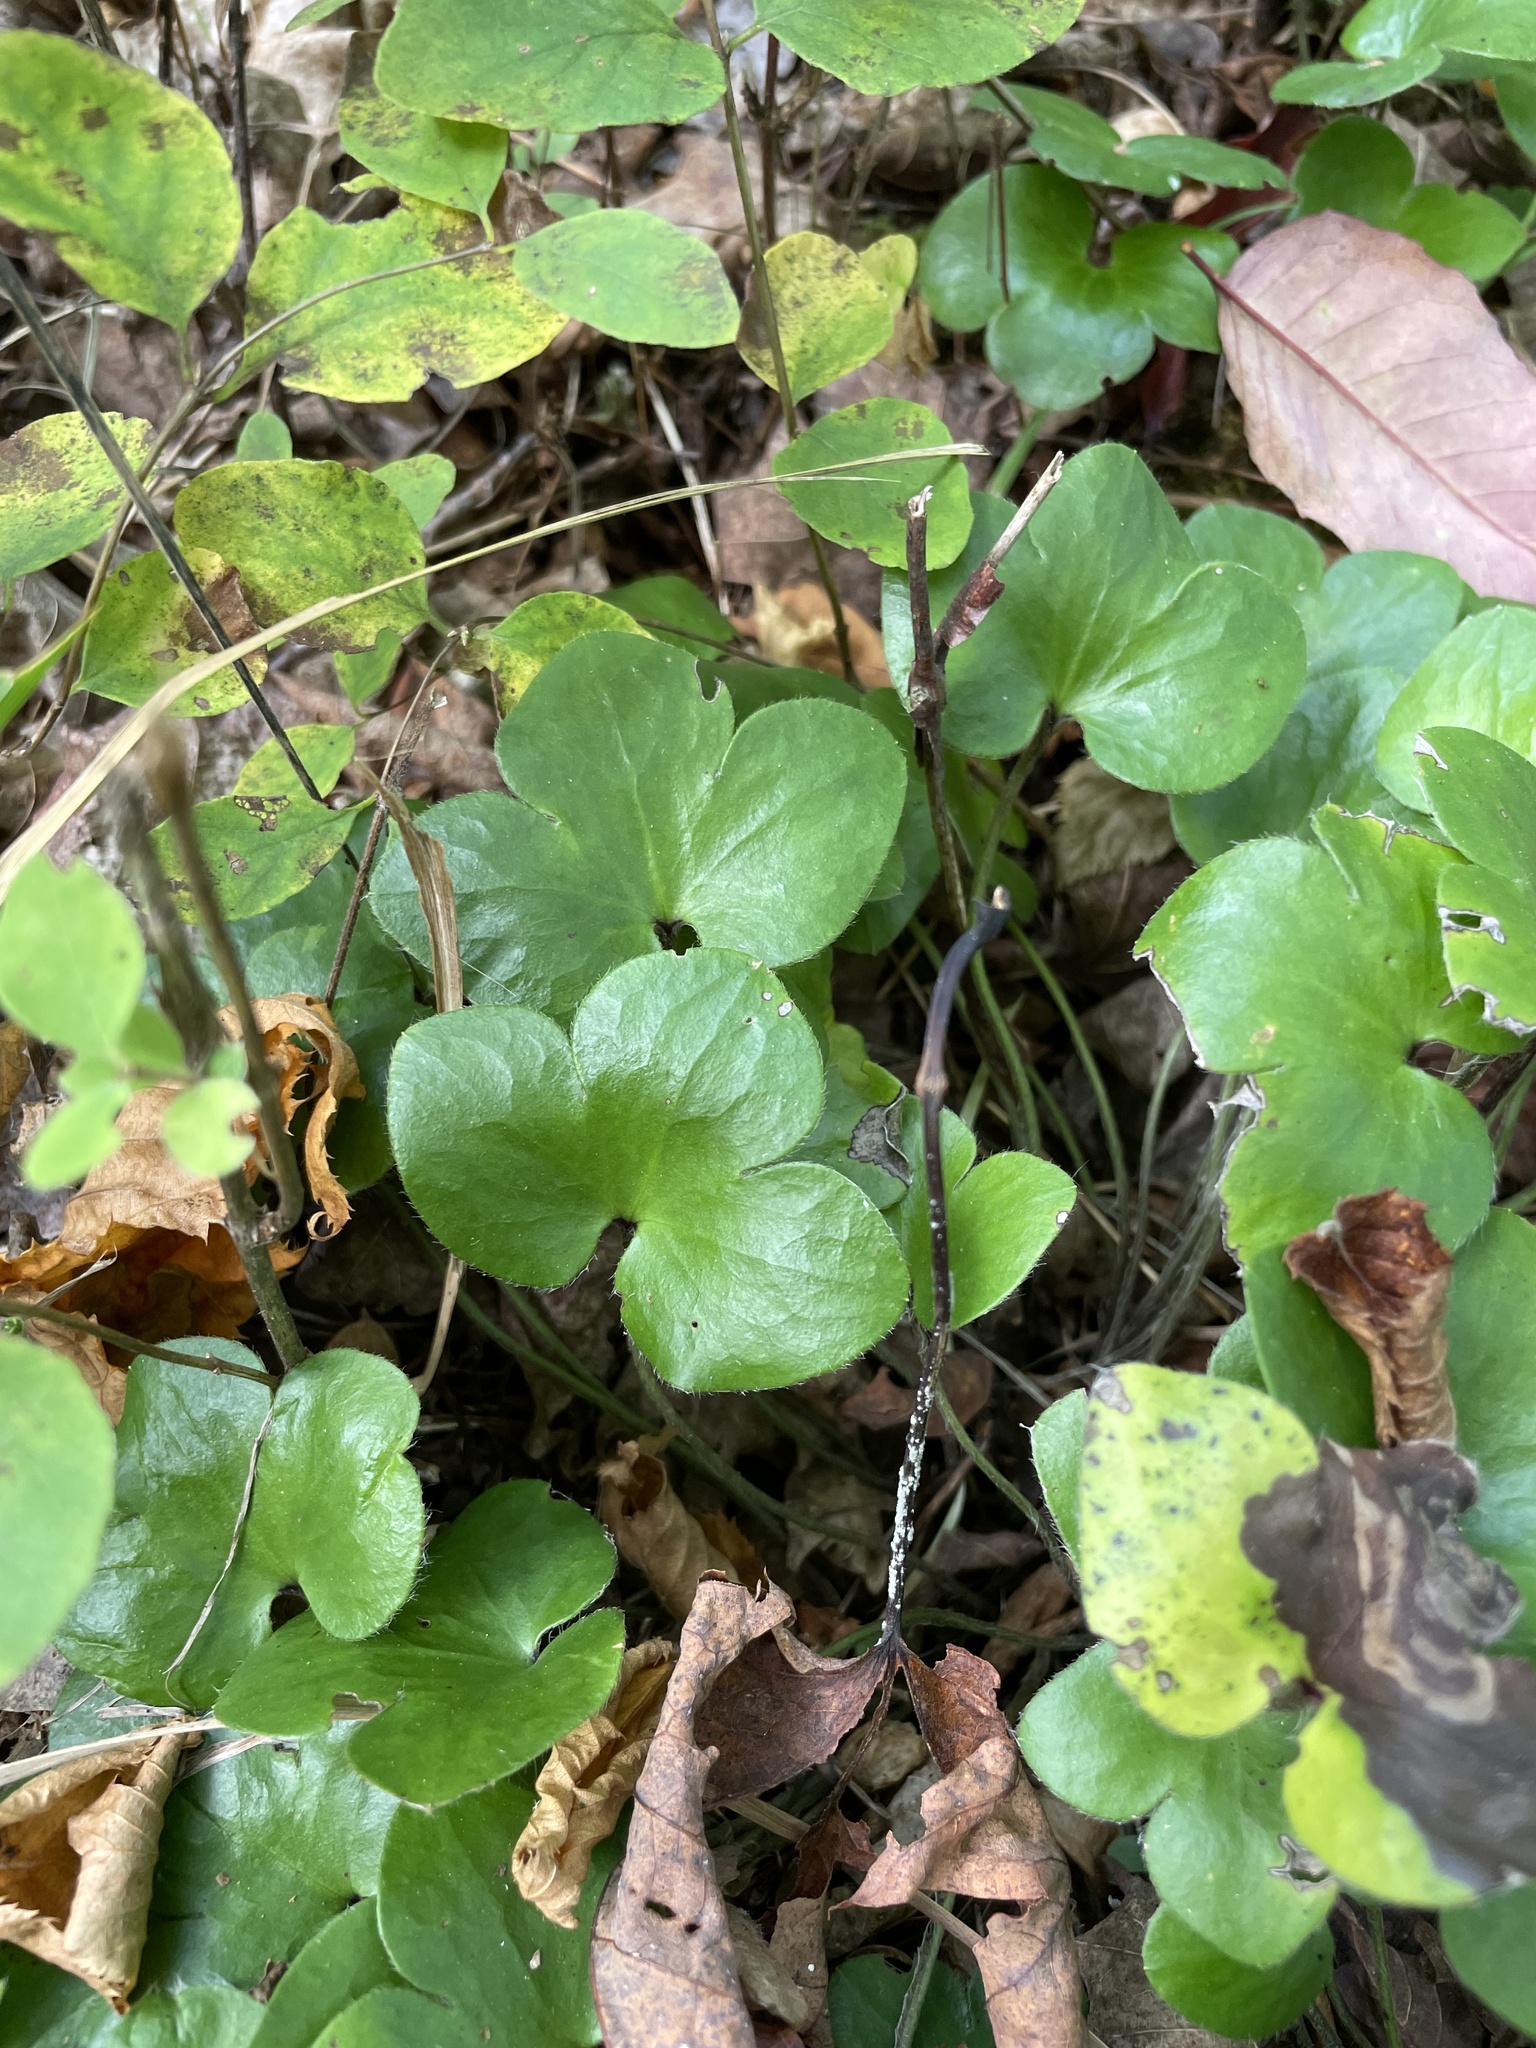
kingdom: Plantae
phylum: Tracheophyta
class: Magnoliopsida
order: Ranunculales
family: Ranunculaceae
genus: Hepatica
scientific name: Hepatica americana
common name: American hepatica
